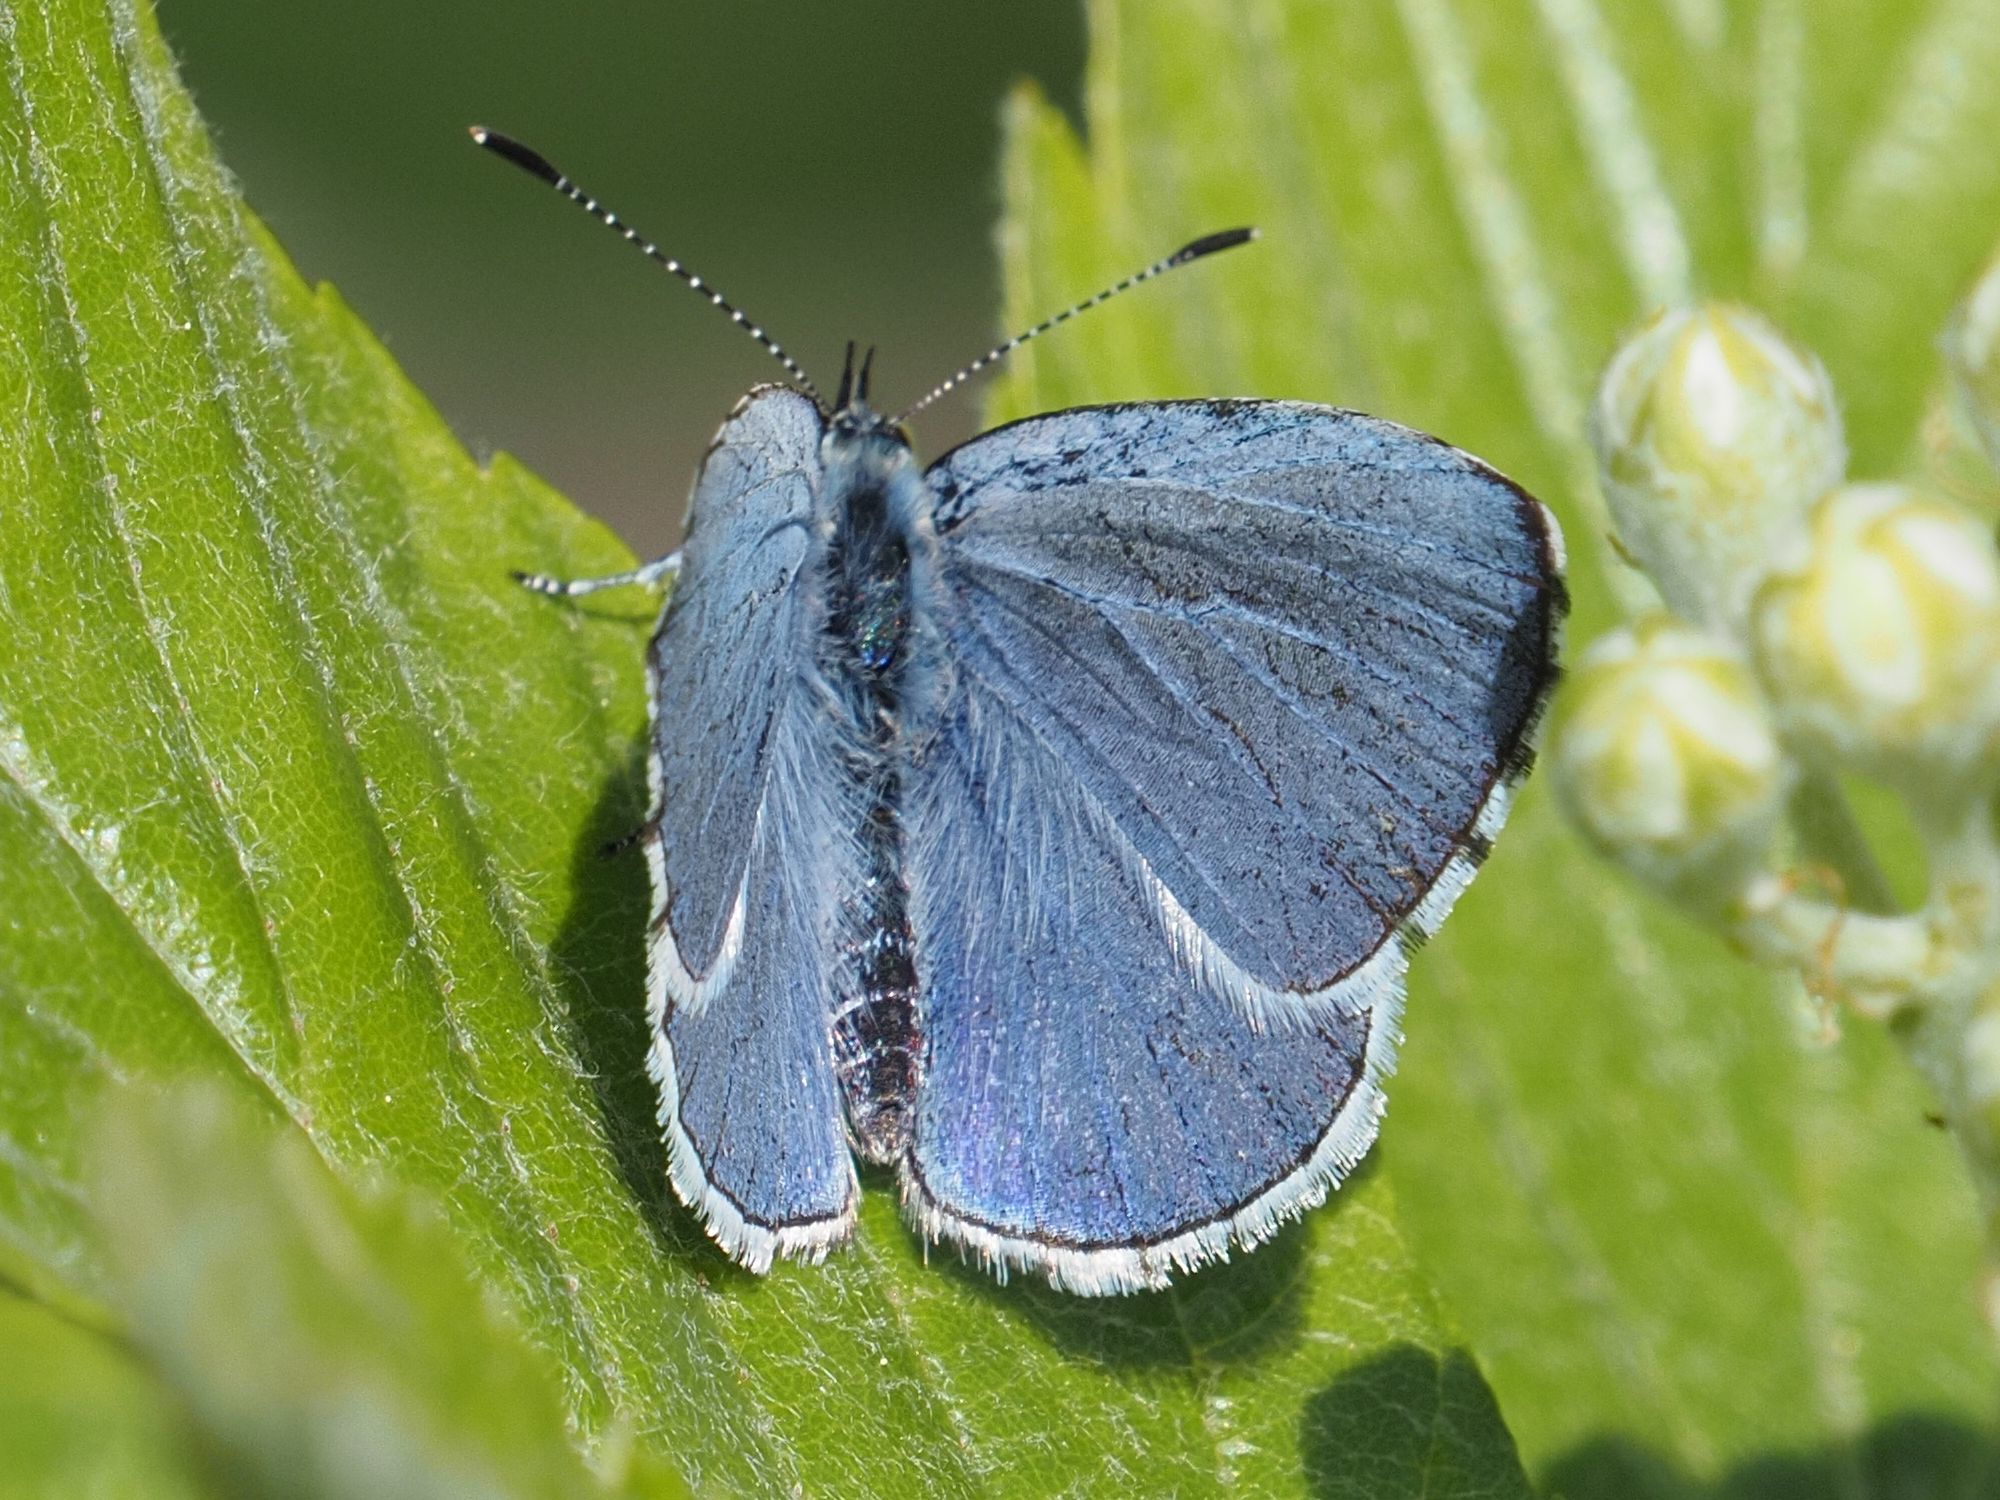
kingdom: Animalia
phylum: Arthropoda
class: Insecta
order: Lepidoptera
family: Lycaenidae
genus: Celastrina
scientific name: Celastrina argiolus
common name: Holly blue
